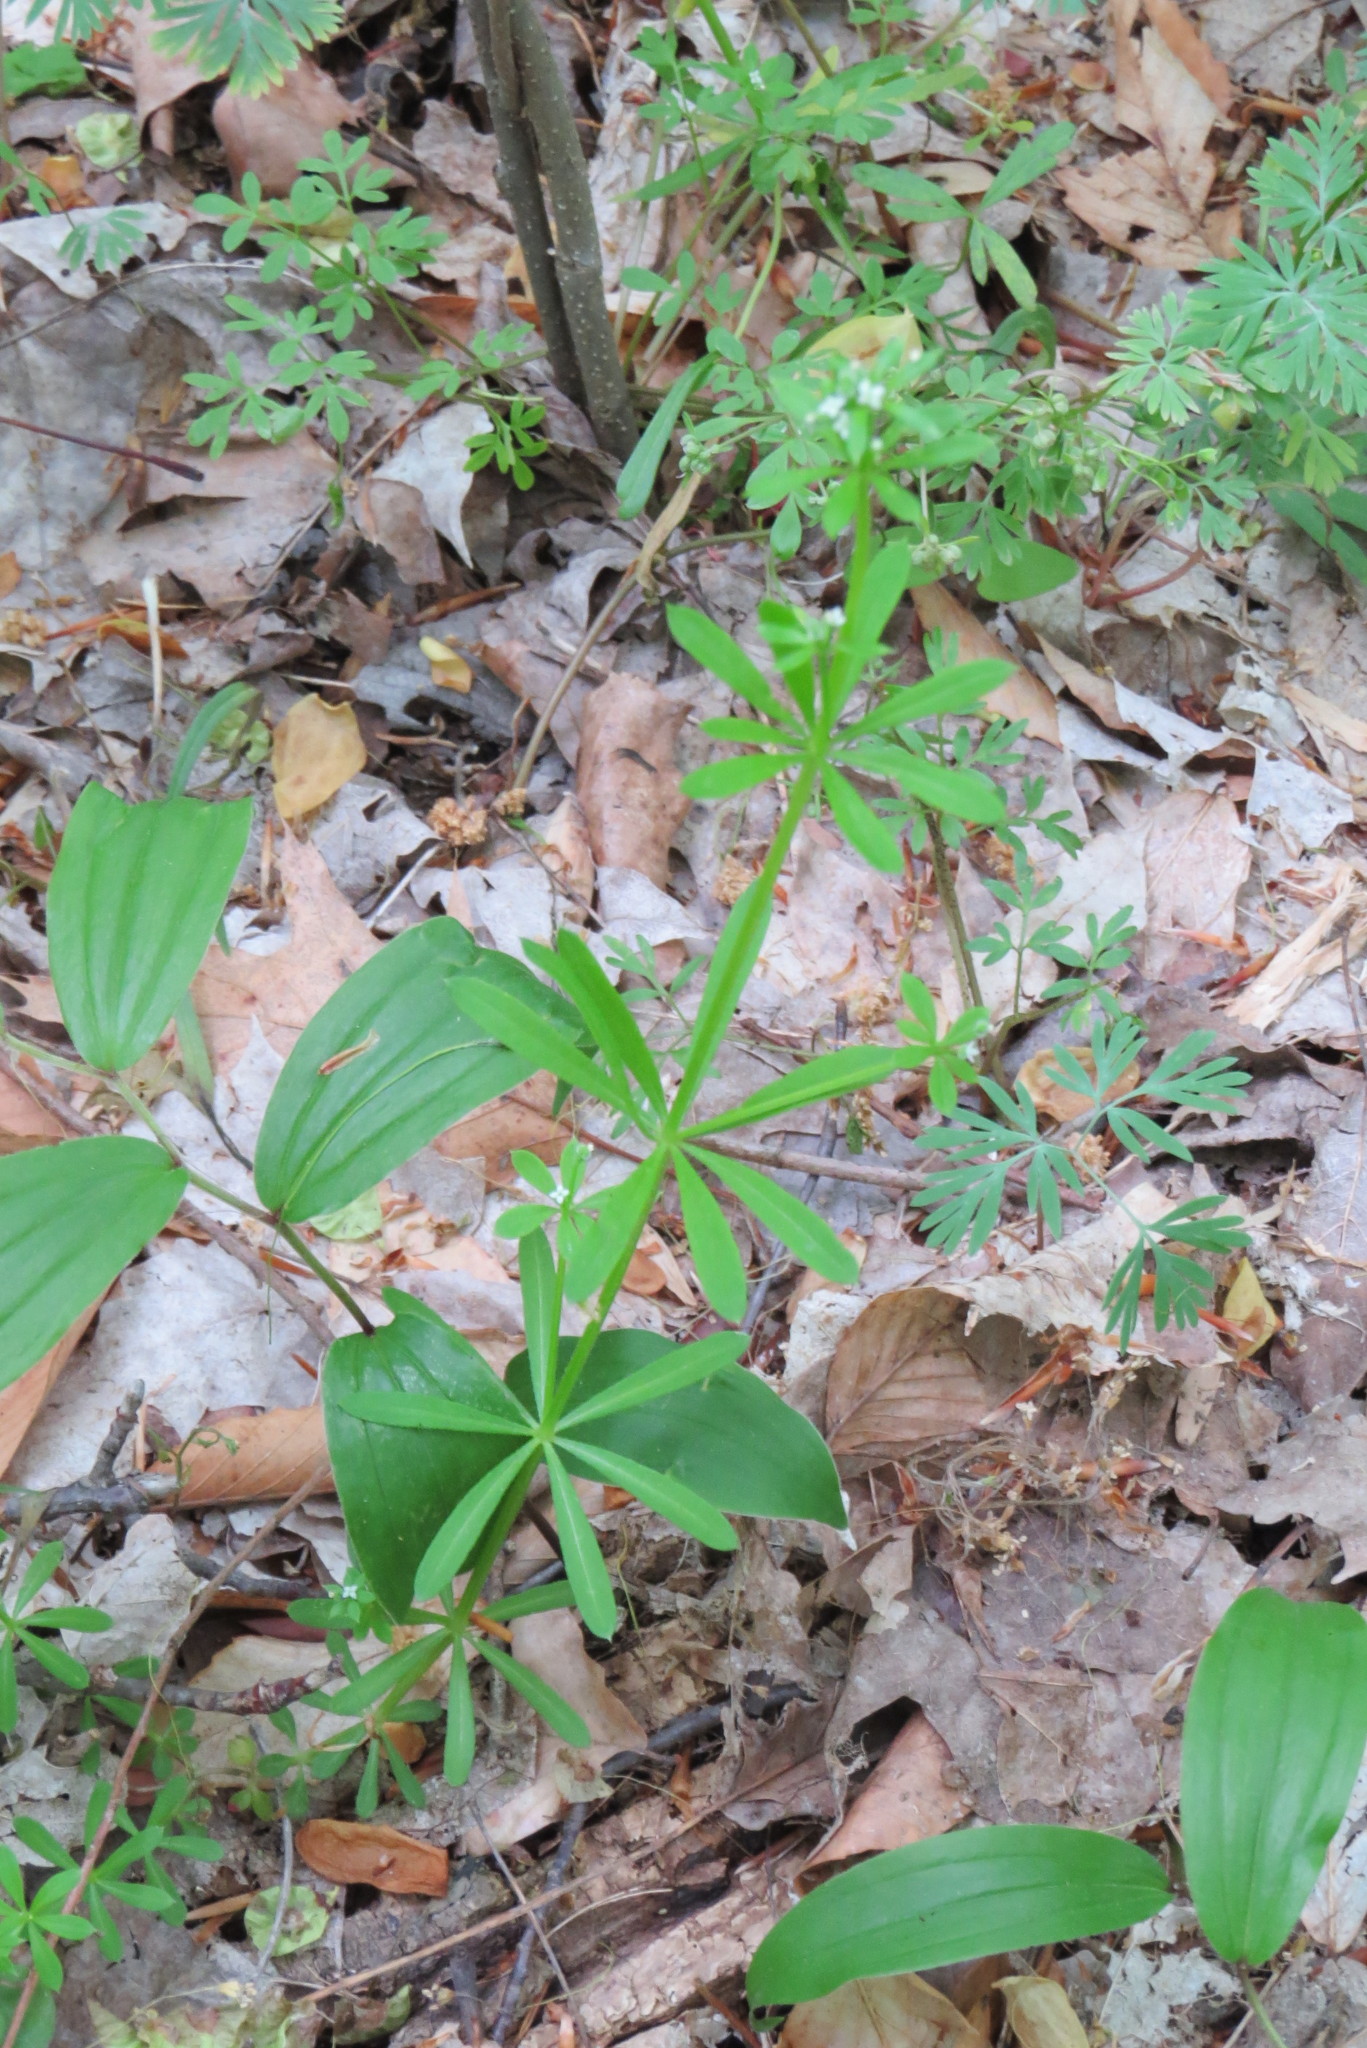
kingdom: Plantae
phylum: Tracheophyta
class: Magnoliopsida
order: Gentianales
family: Rubiaceae
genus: Galium
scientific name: Galium aparine
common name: Cleavers
